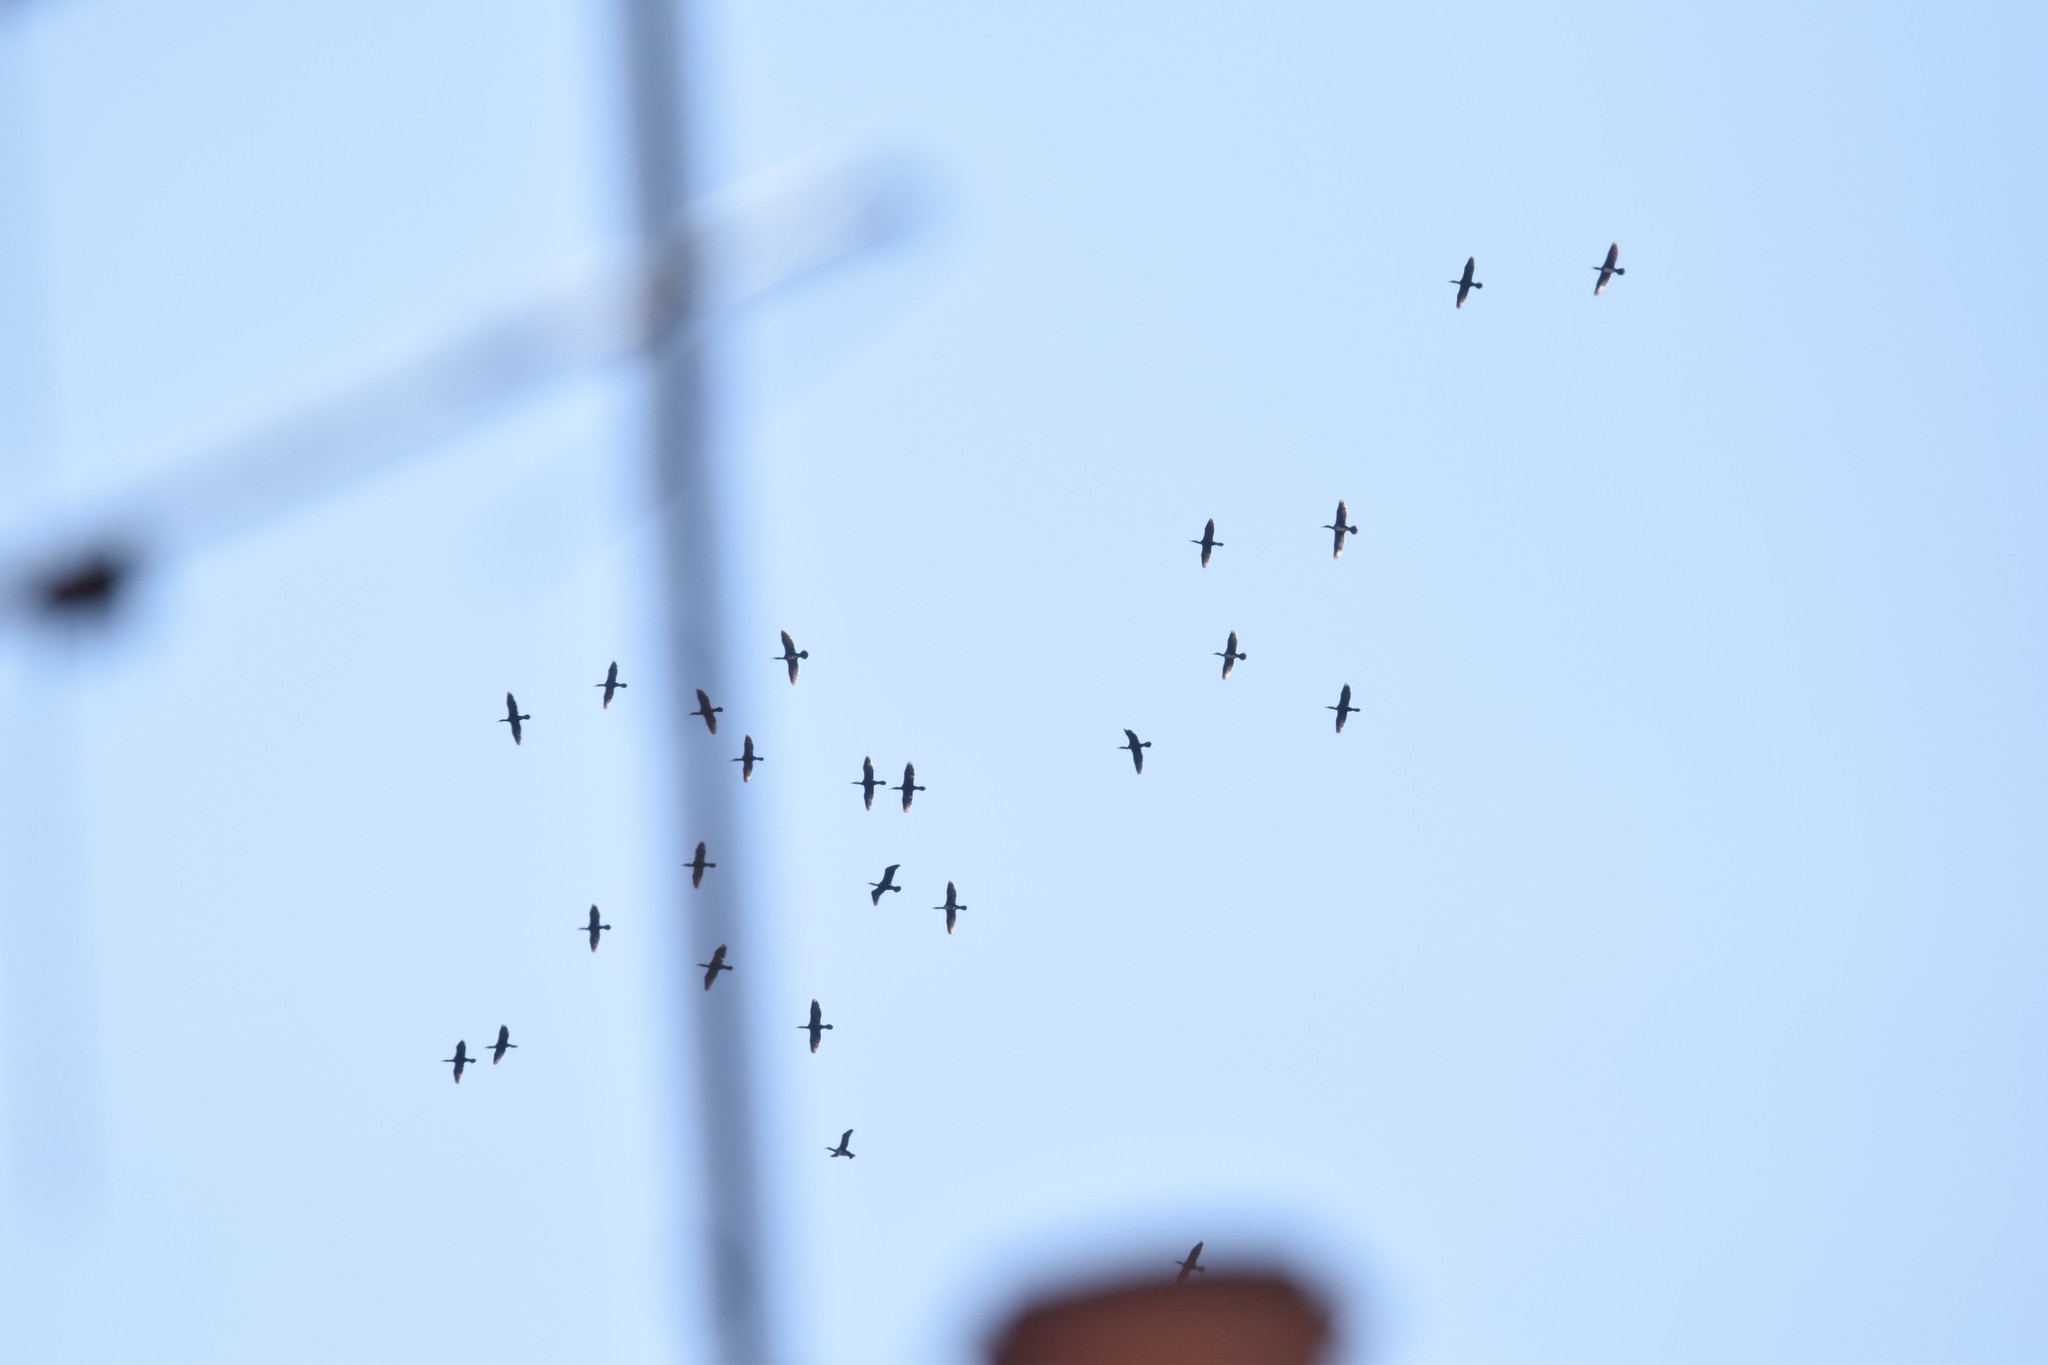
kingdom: Animalia
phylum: Chordata
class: Aves
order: Suliformes
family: Phalacrocoracidae
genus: Phalacrocorax
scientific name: Phalacrocorax carbo
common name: Great cormorant
